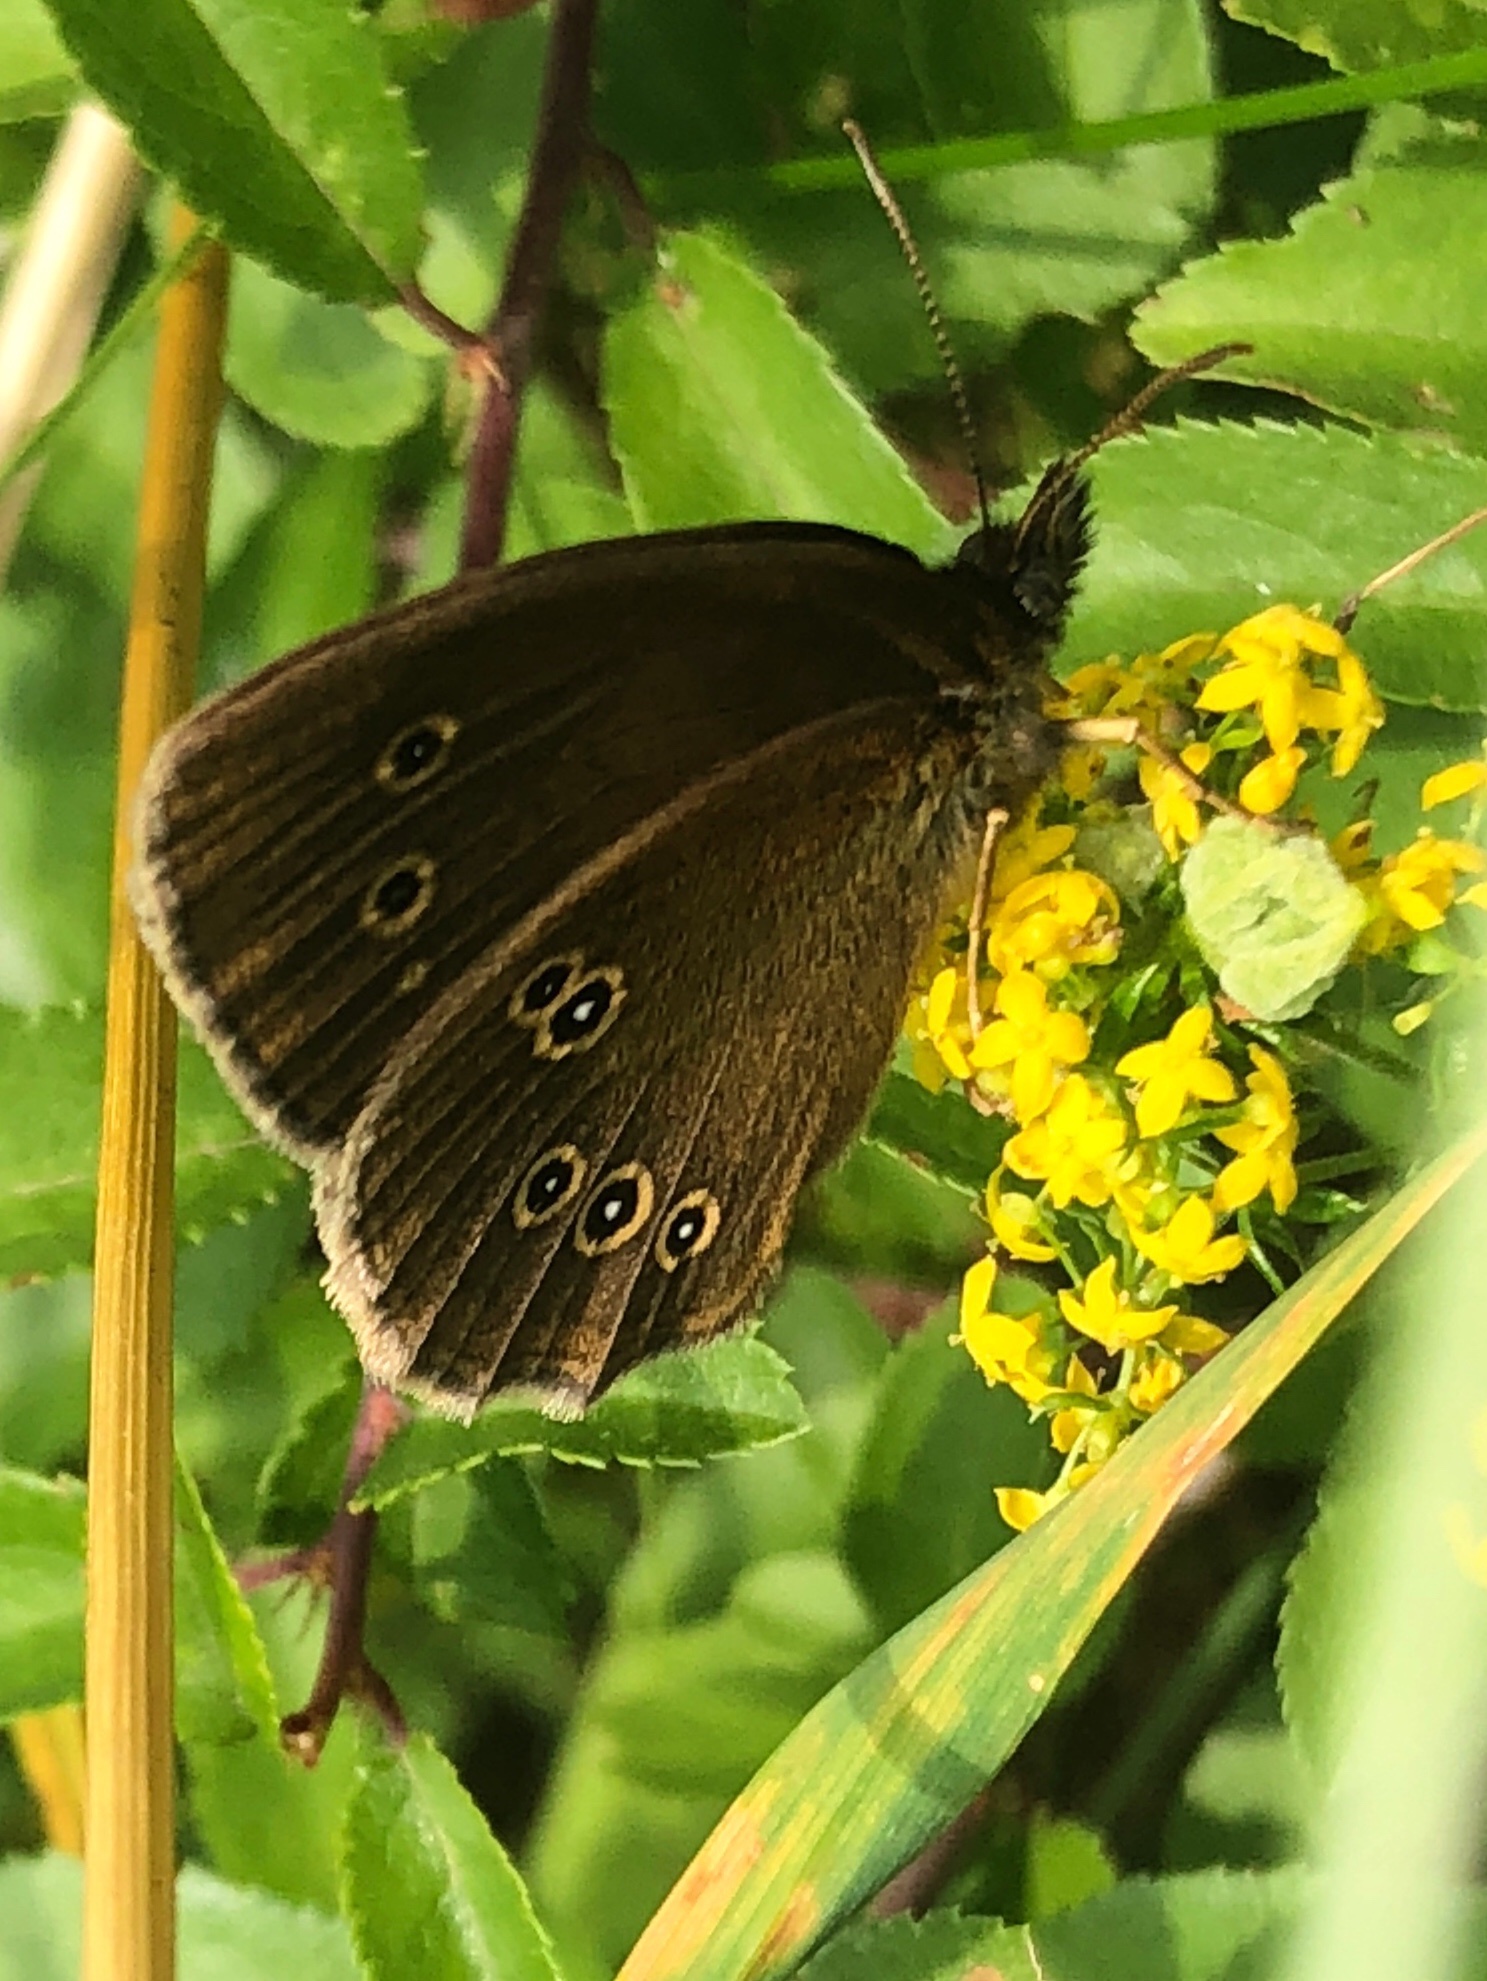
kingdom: Animalia
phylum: Arthropoda
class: Insecta
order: Lepidoptera
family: Nymphalidae
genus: Aphantopus
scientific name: Aphantopus hyperantus
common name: Ringlet
